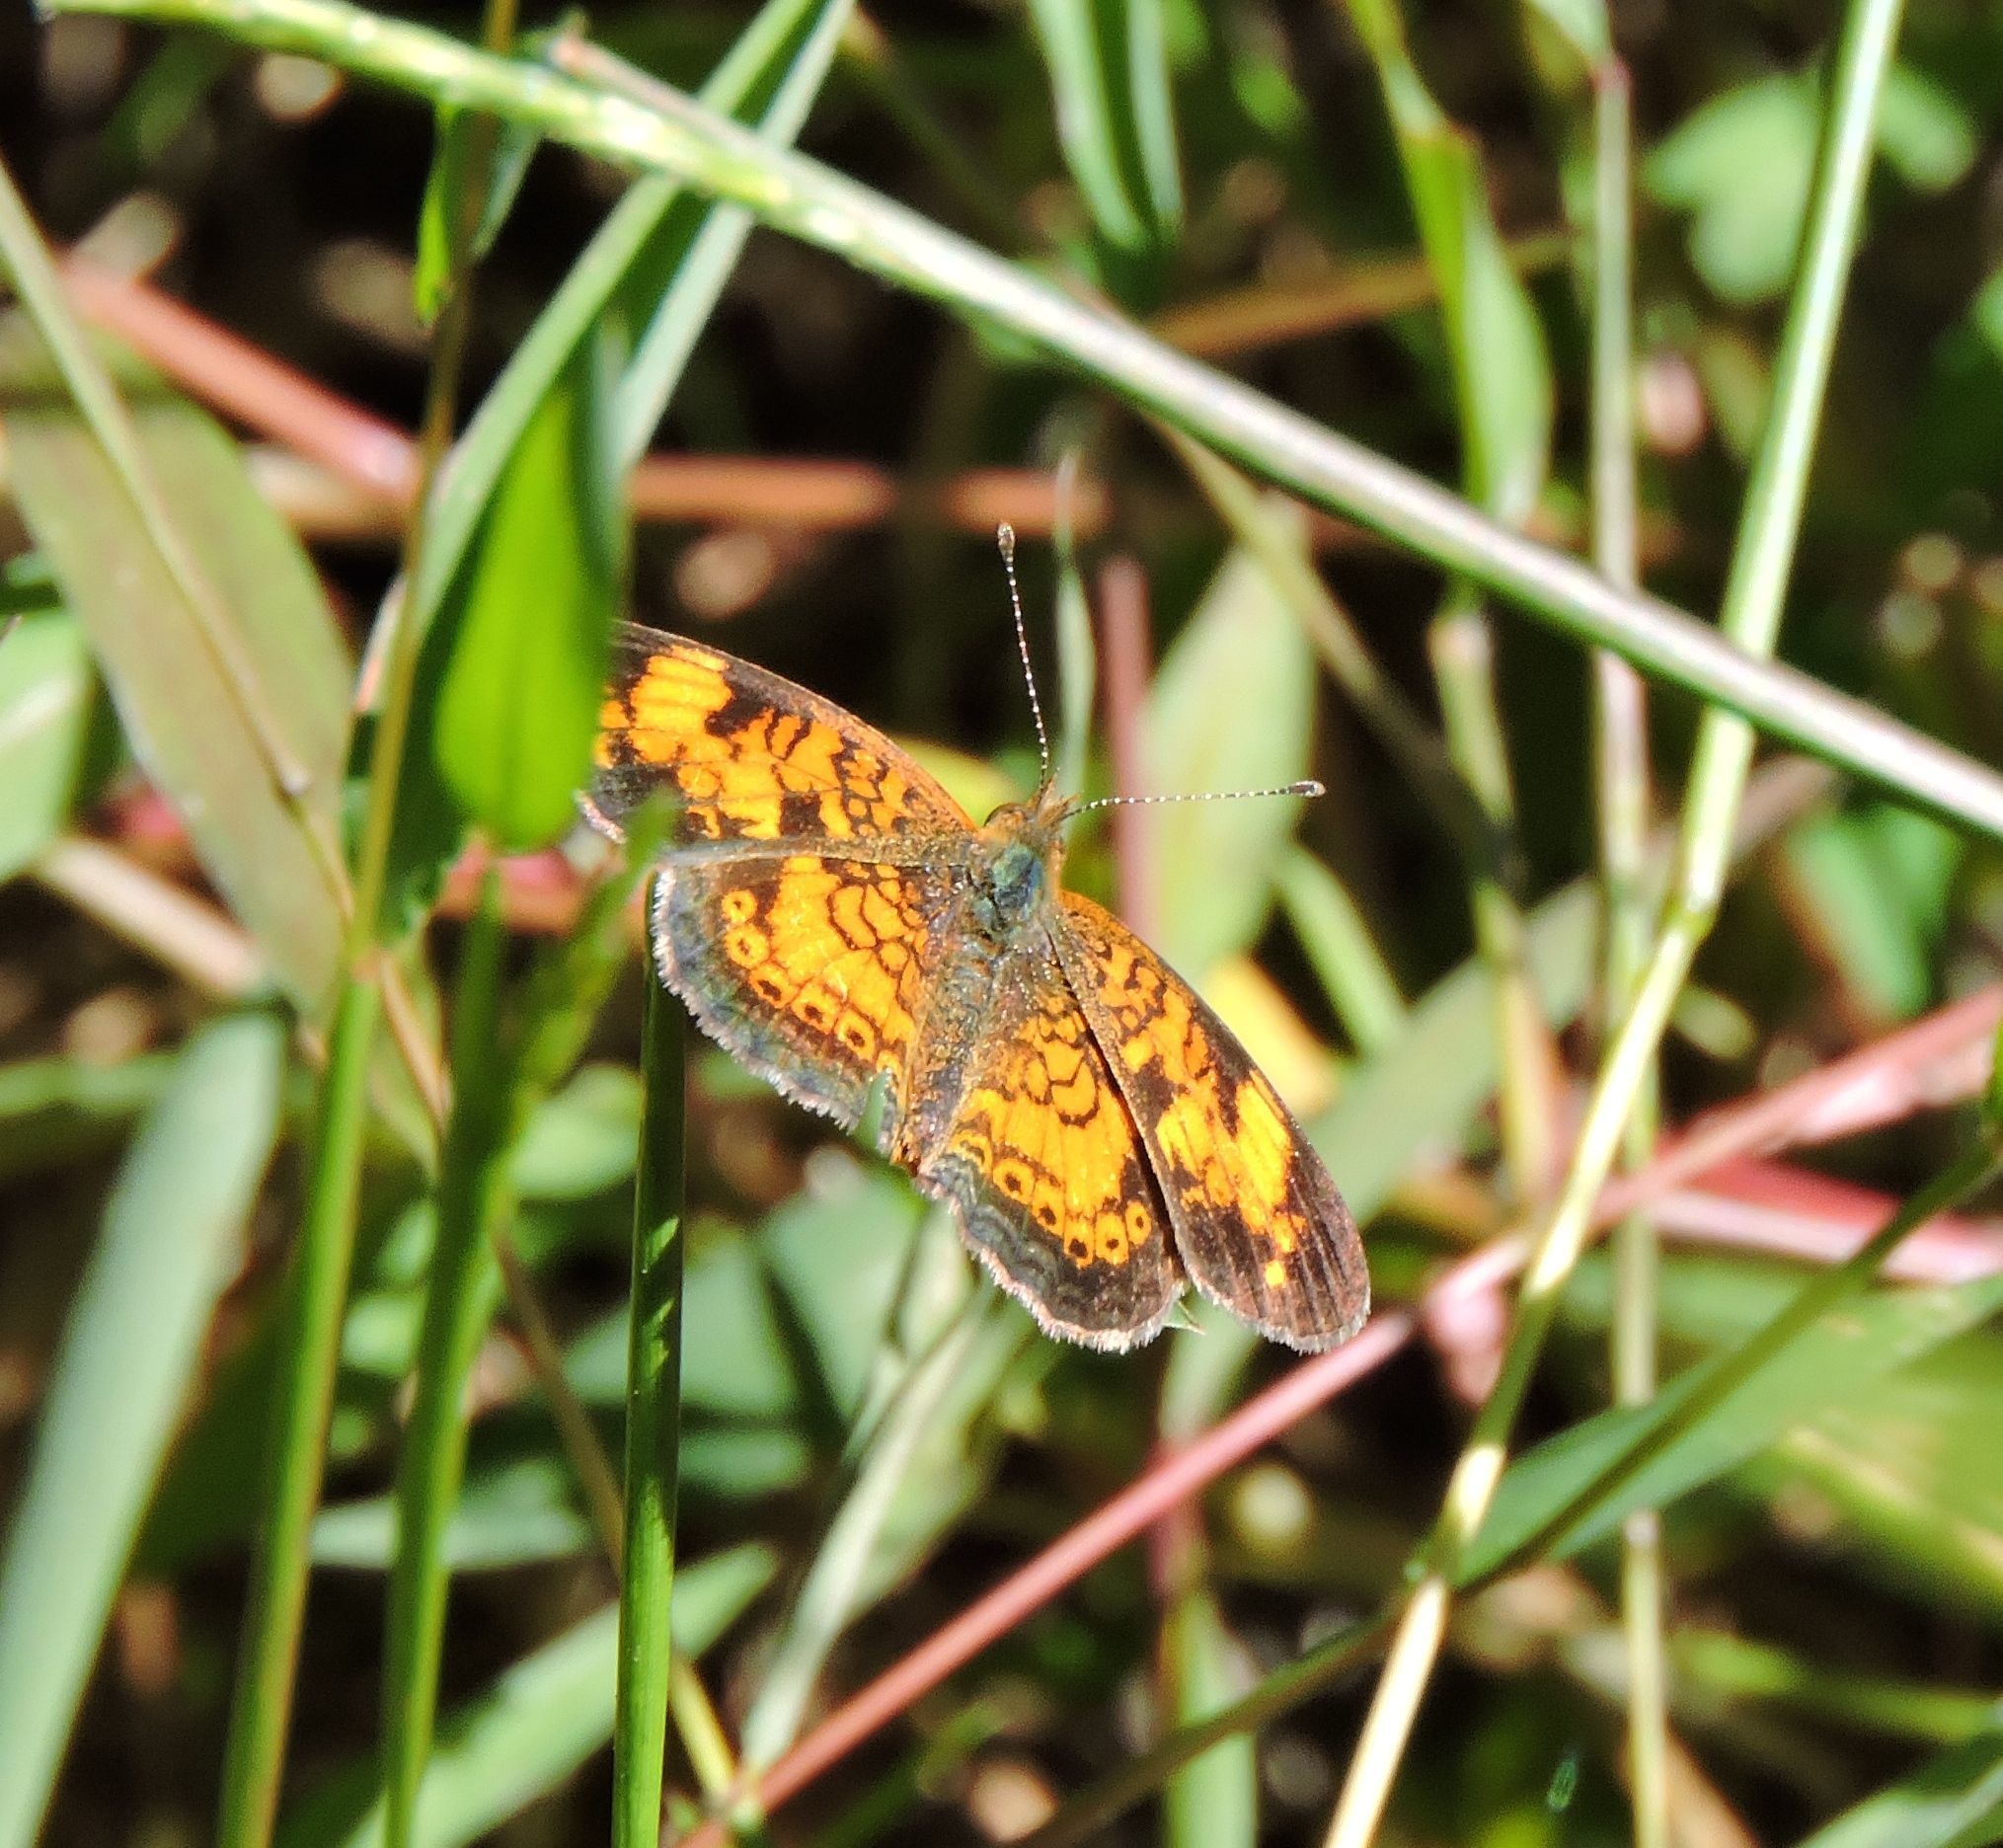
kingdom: Animalia
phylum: Arthropoda
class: Insecta
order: Lepidoptera
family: Nymphalidae
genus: Phyciodes
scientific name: Phyciodes tharos
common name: Pearl crescent
